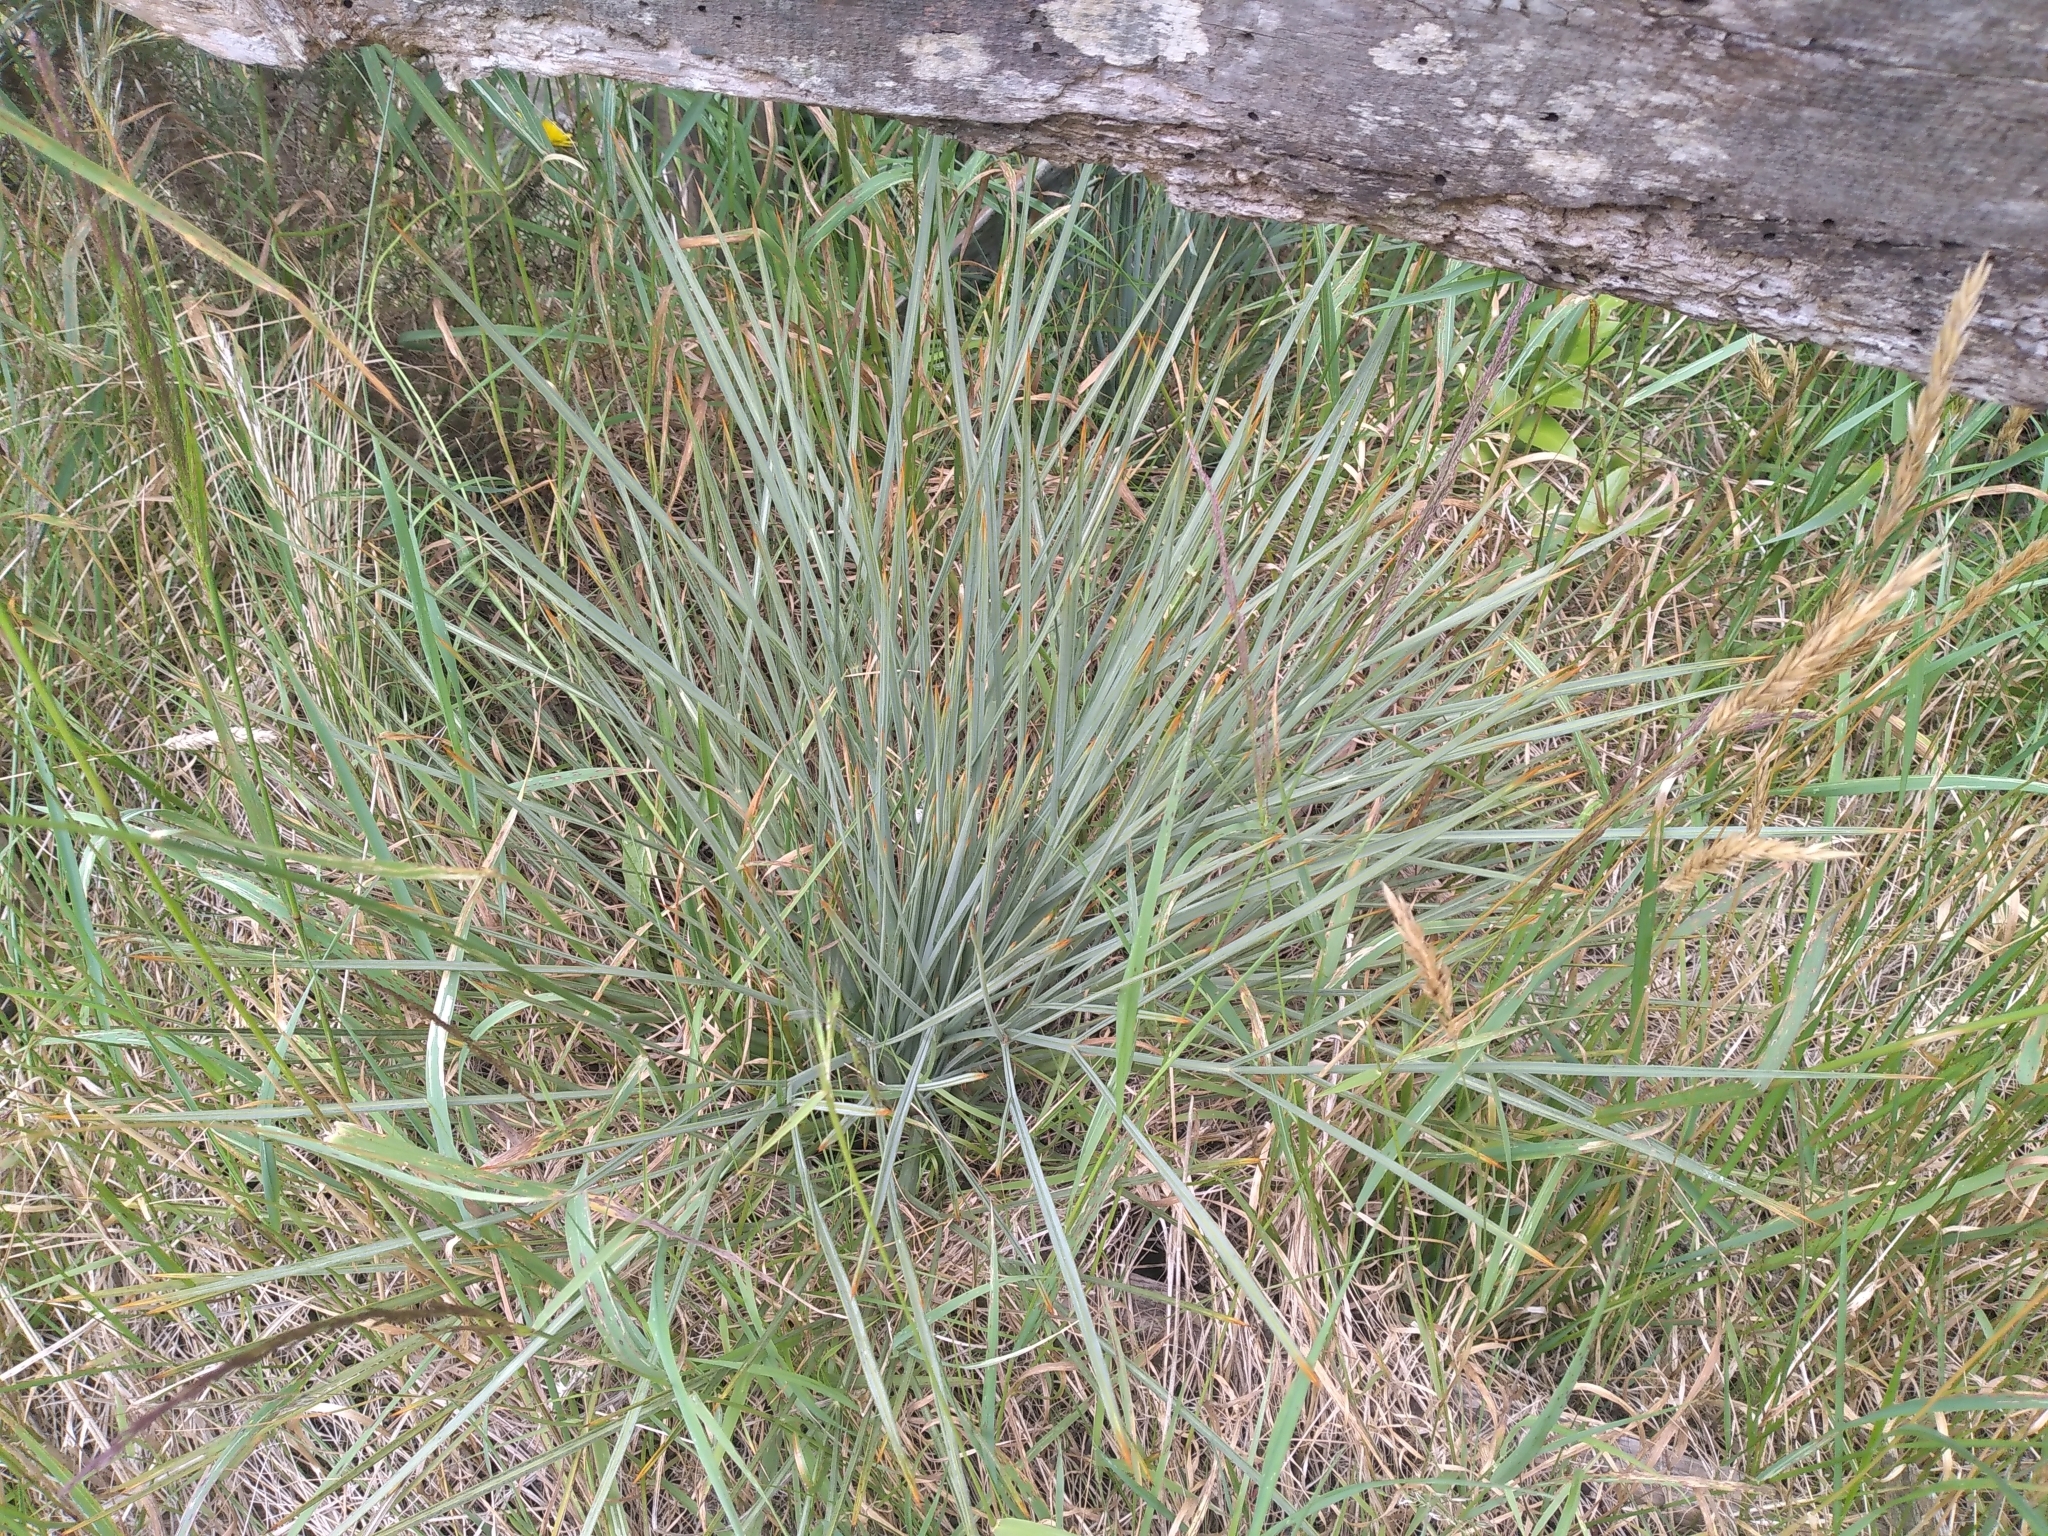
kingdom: Plantae
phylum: Tracheophyta
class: Magnoliopsida
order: Apiales
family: Apiaceae
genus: Aciphylla
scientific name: Aciphylla squarrosa
